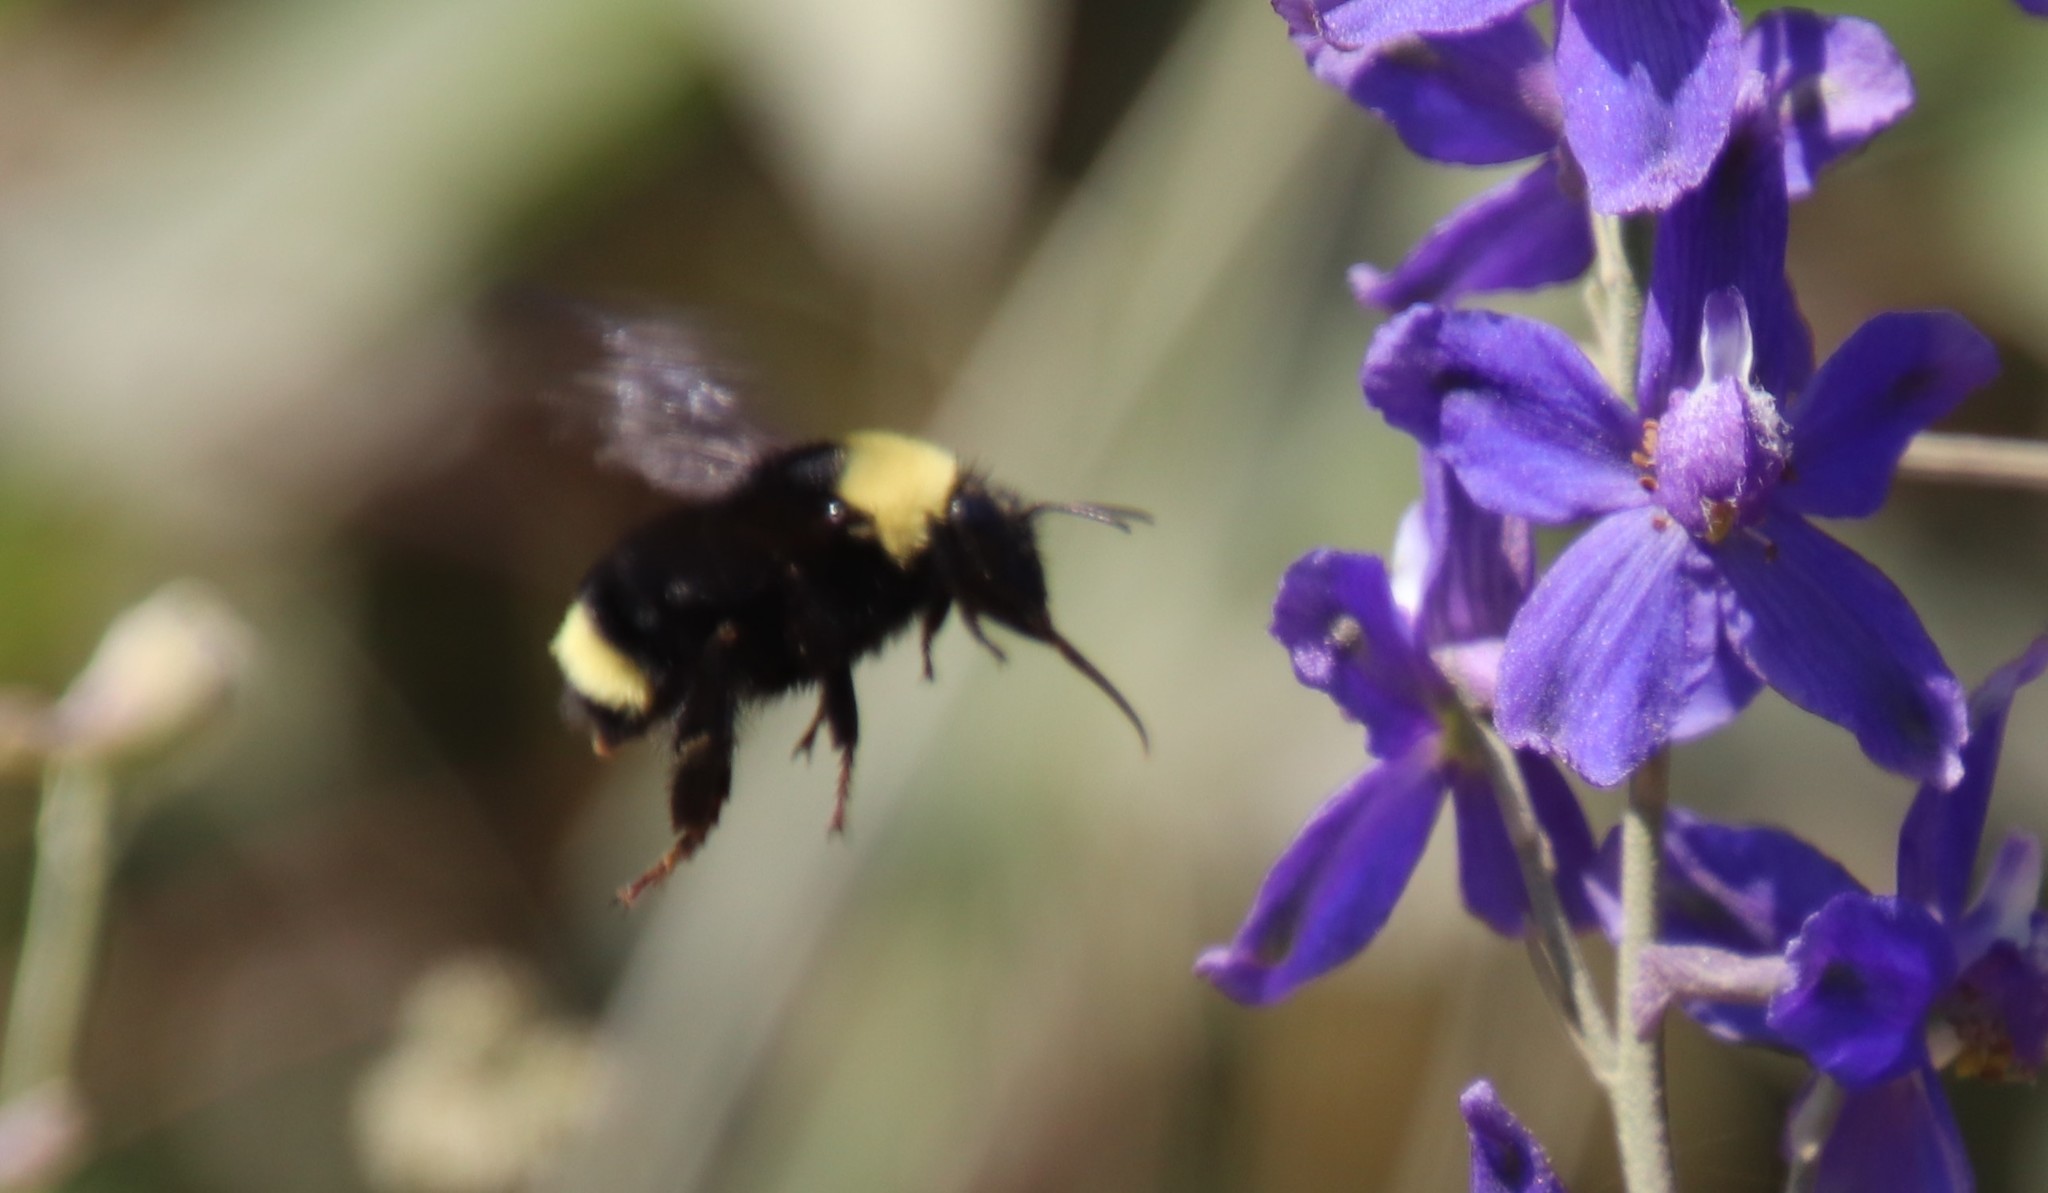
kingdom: Animalia
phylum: Arthropoda
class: Insecta
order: Hymenoptera
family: Apidae
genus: Bombus
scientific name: Bombus californicus
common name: California bumble bee
